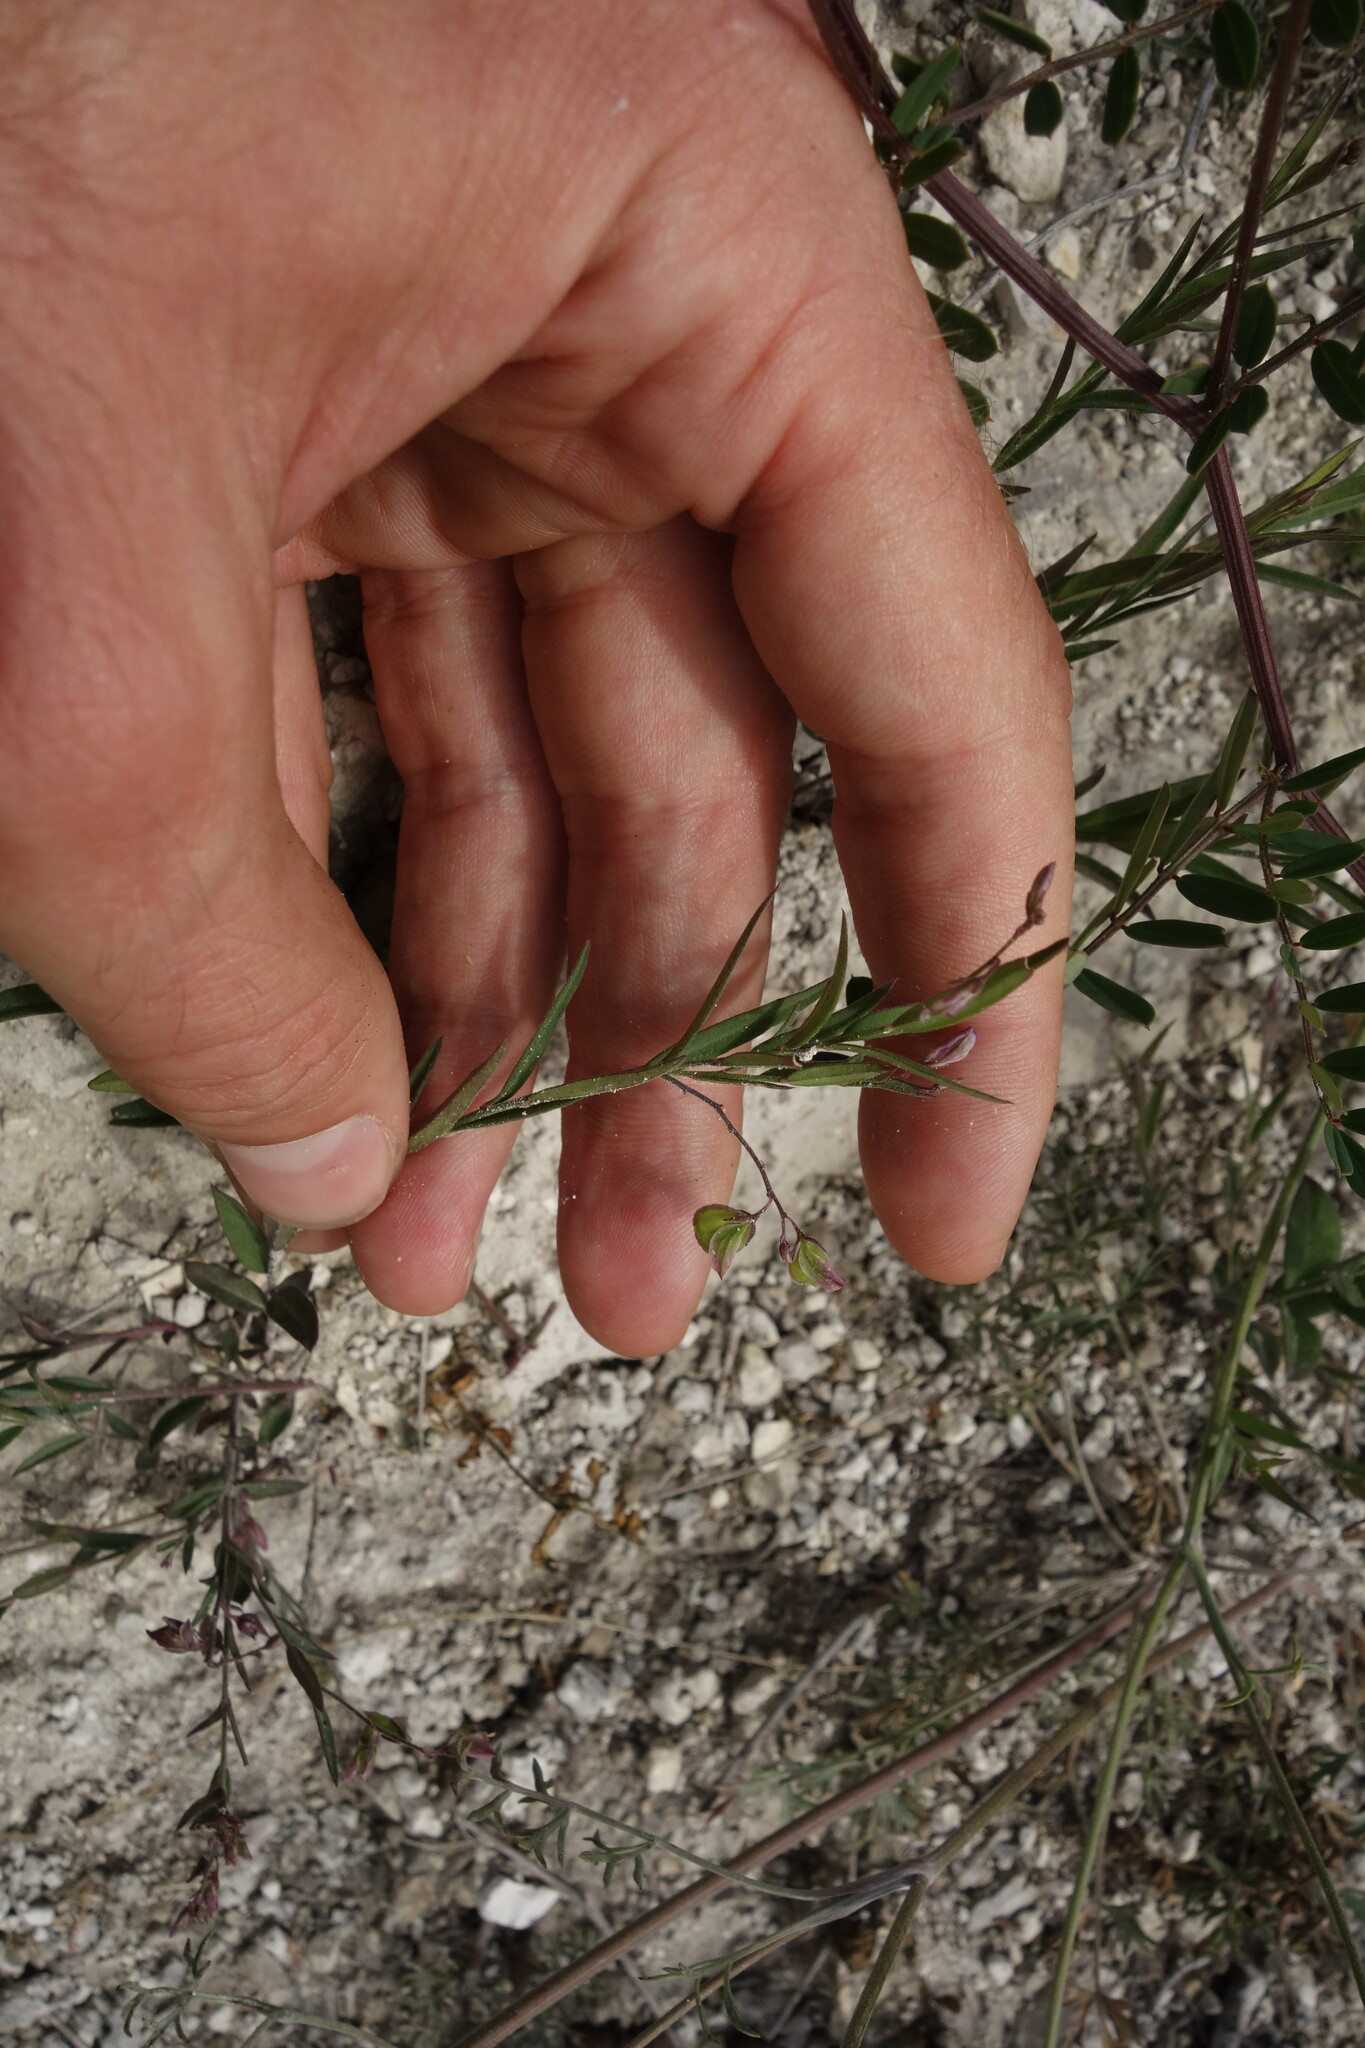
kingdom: Plantae
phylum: Tracheophyta
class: Magnoliopsida
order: Fabales
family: Polygalaceae
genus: Polygala
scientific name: Polygala sibirica
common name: Siberian polygala
